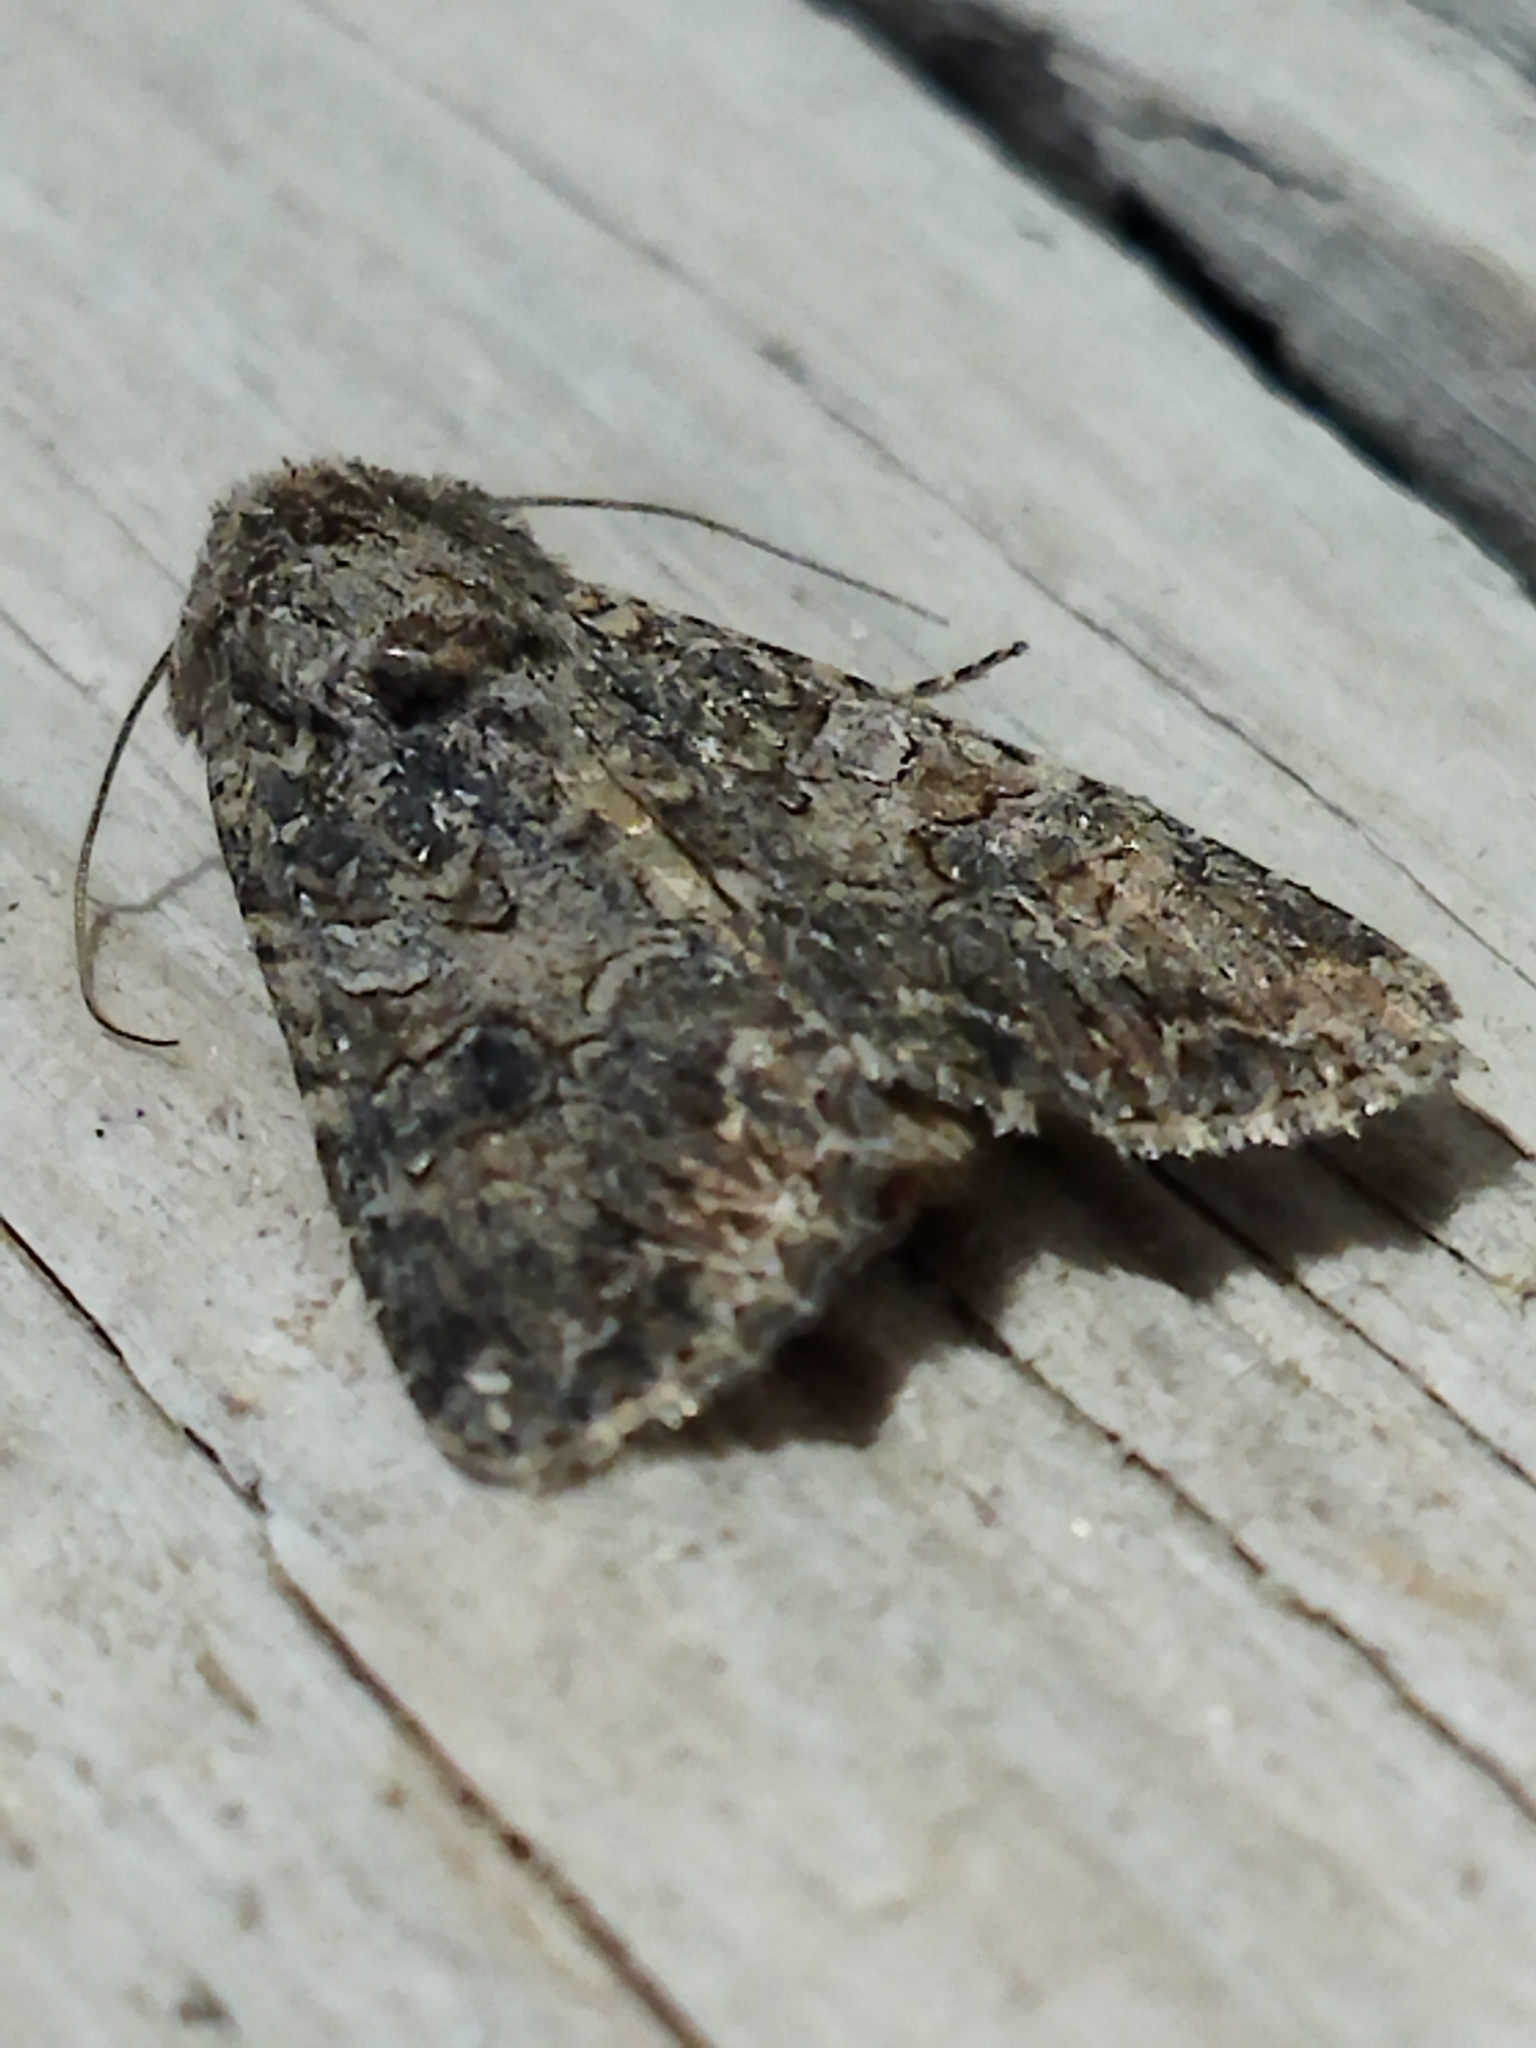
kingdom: Animalia
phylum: Arthropoda
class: Insecta
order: Lepidoptera
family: Noctuidae
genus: Anarta
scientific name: Anarta trifolii
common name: Clover cutworm moth
